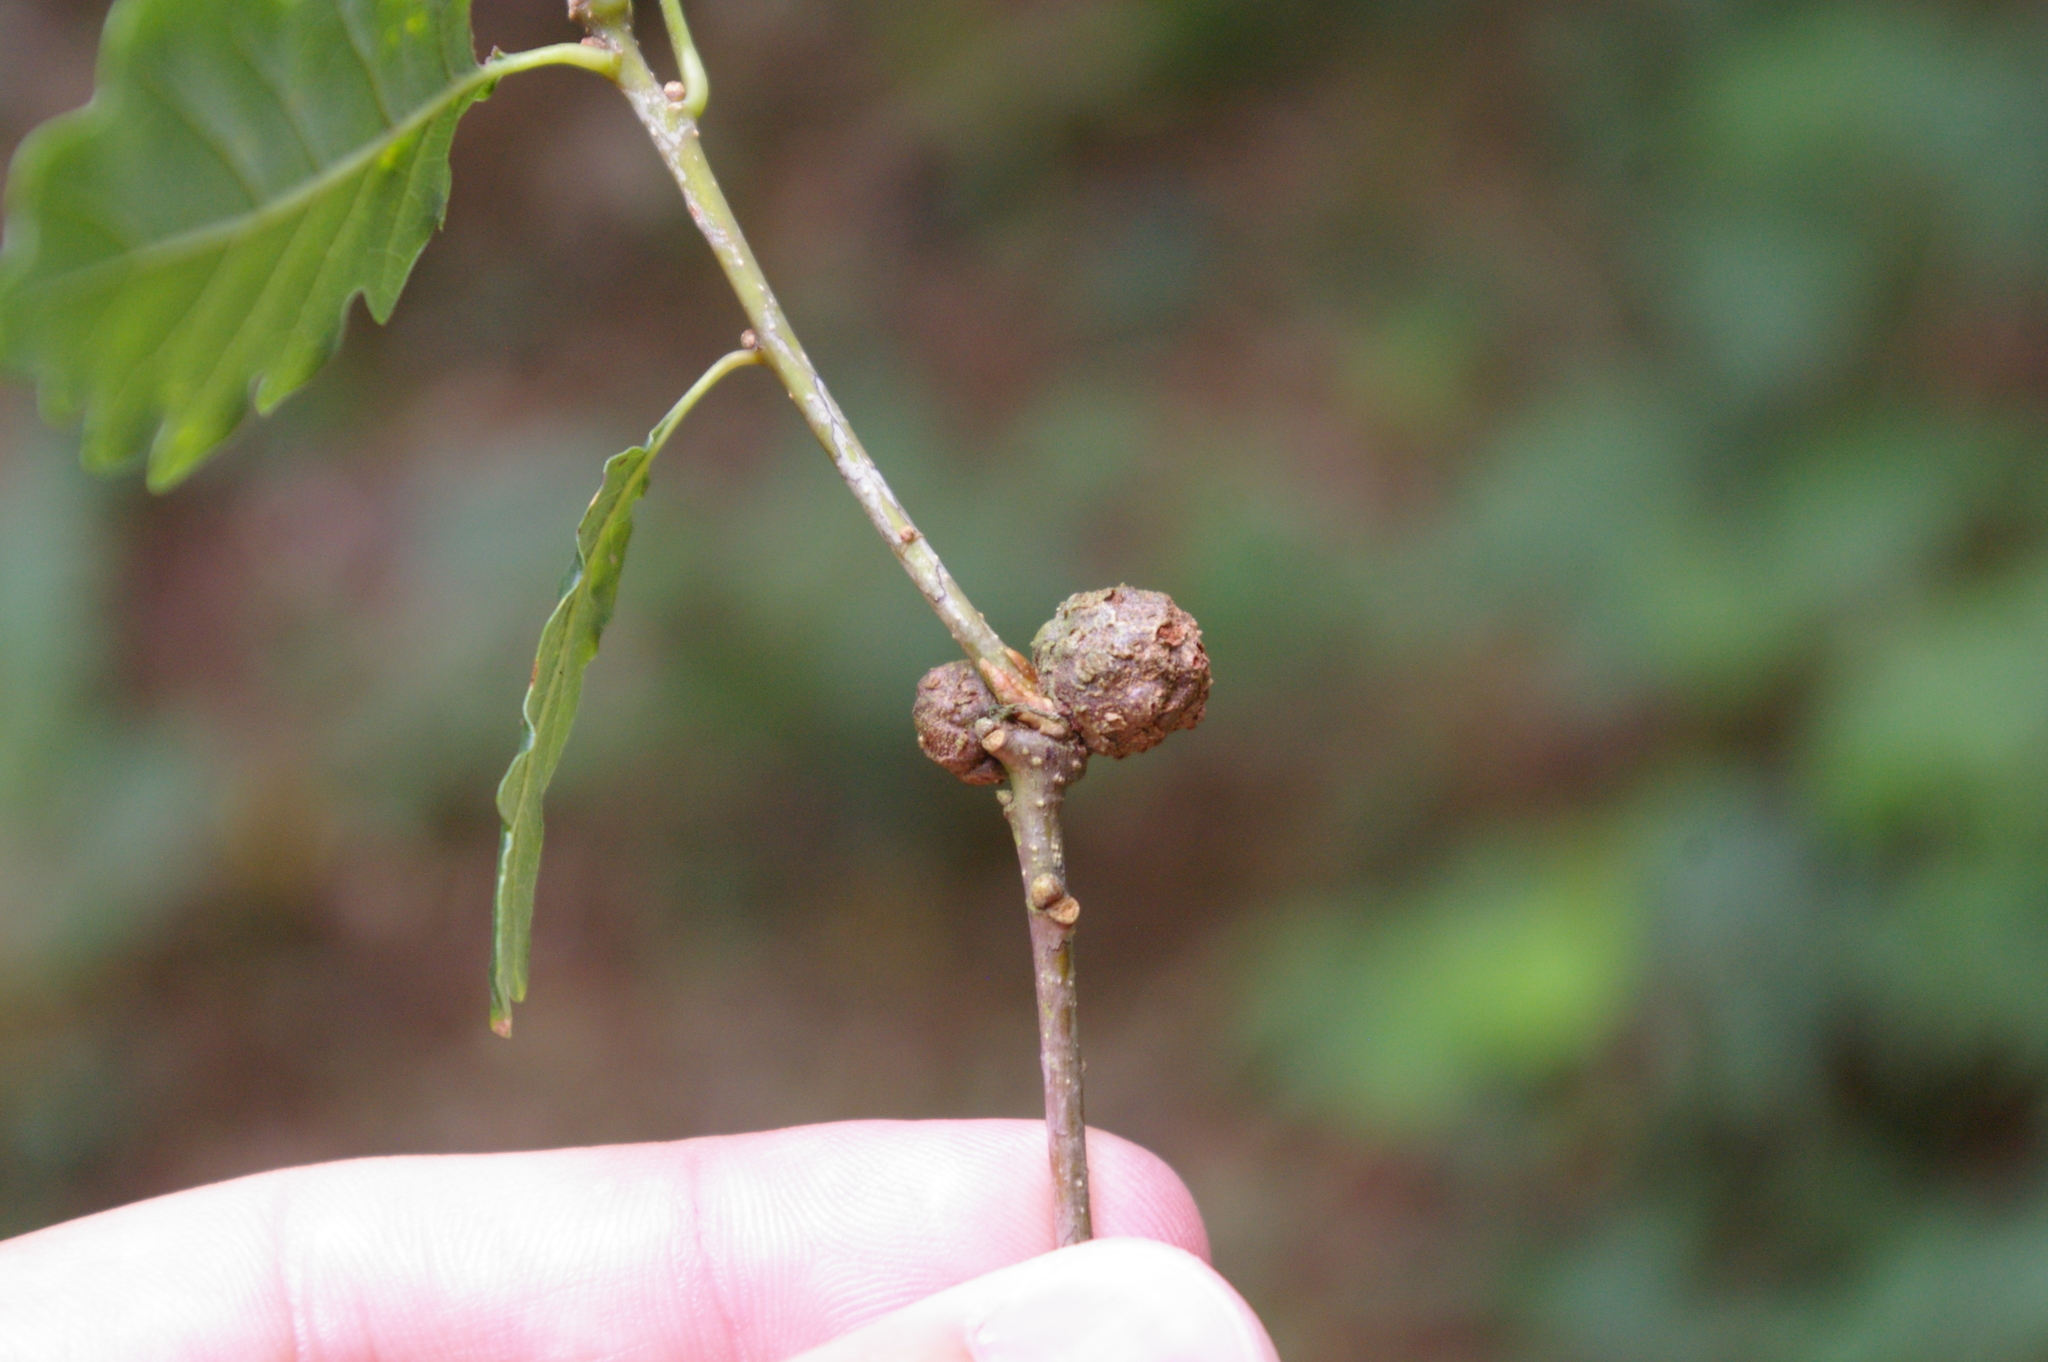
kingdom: Animalia
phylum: Arthropoda
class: Insecta
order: Hymenoptera
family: Cynipidae
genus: Andricus
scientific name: Andricus lignicolus
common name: Cola-nut gall
